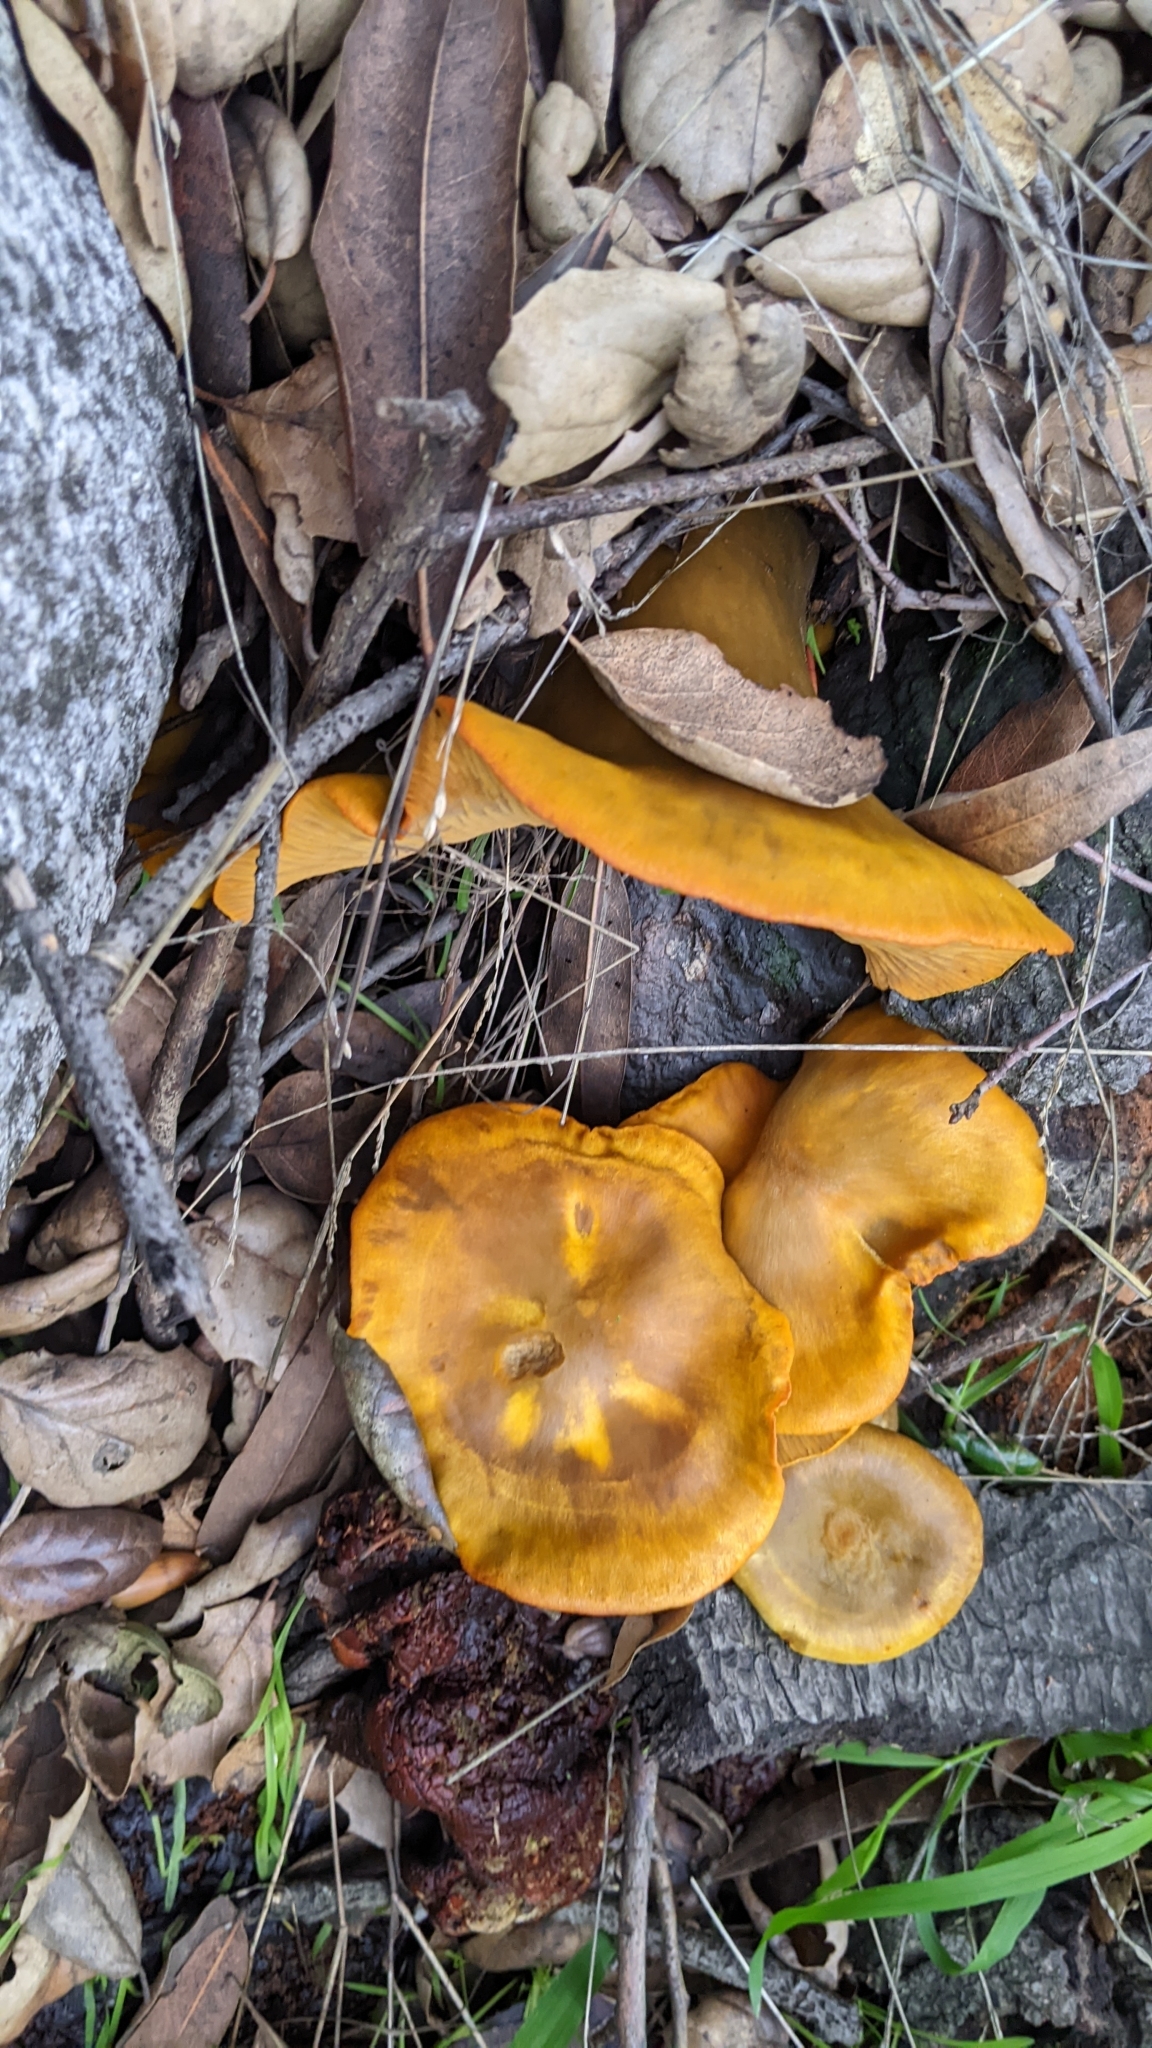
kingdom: Fungi
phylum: Basidiomycota
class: Agaricomycetes
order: Agaricales
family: Omphalotaceae
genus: Omphalotus
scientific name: Omphalotus olivascens
